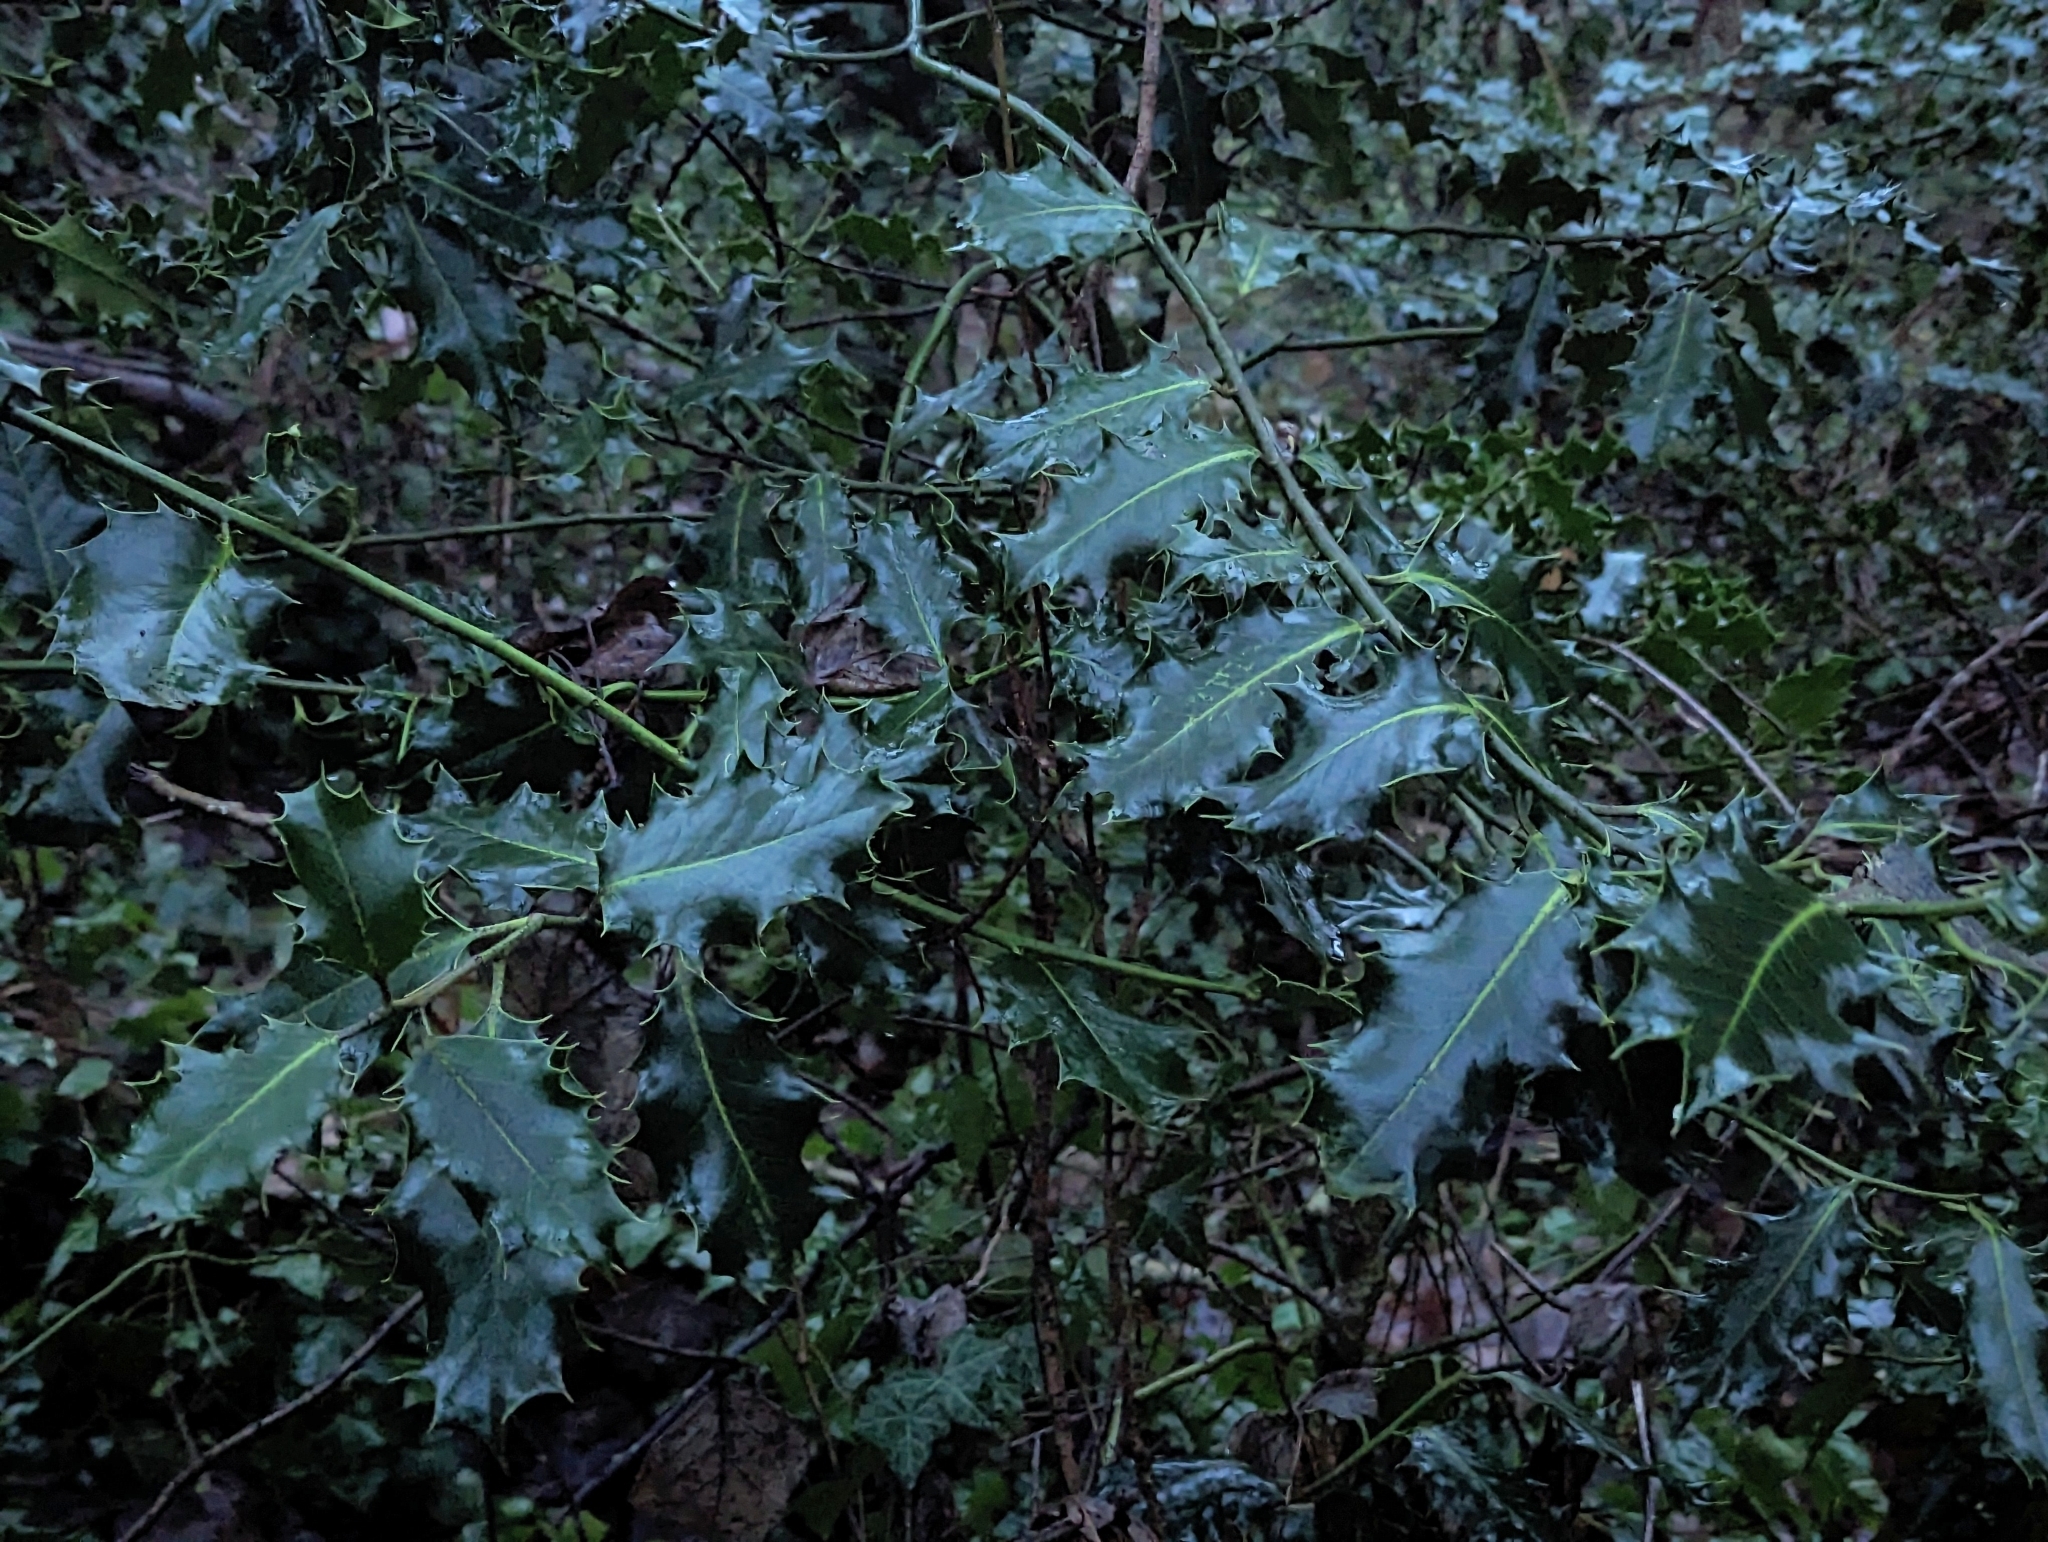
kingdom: Plantae
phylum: Tracheophyta
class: Magnoliopsida
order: Aquifoliales
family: Aquifoliaceae
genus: Ilex
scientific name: Ilex aquifolium
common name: English holly
